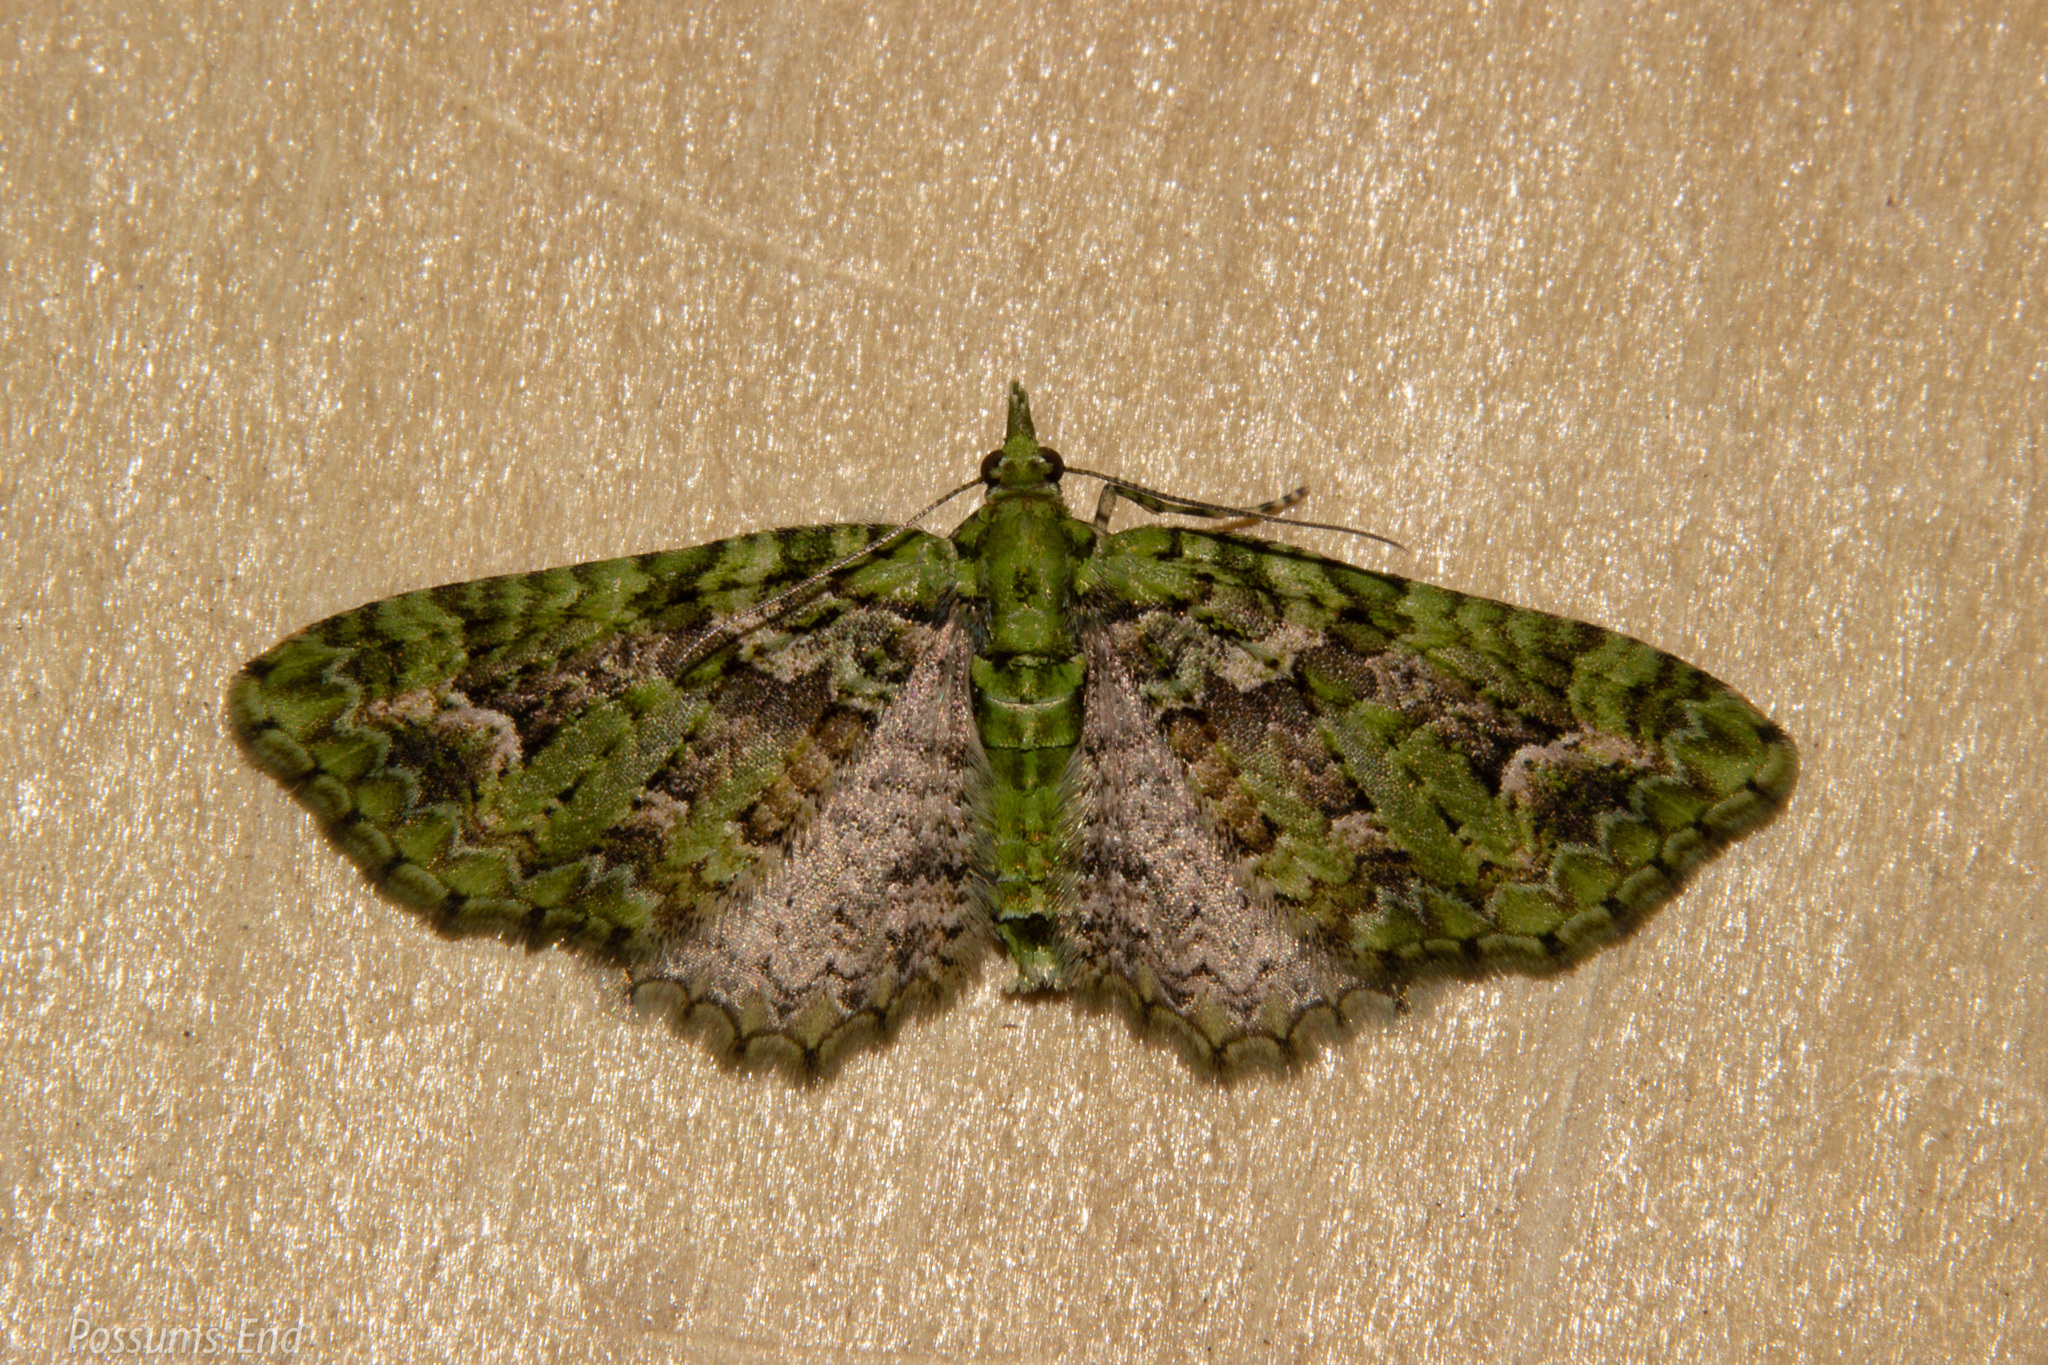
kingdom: Animalia
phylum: Arthropoda
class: Insecta
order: Lepidoptera
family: Geometridae
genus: Pasiphila
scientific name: Pasiphila muscosata
